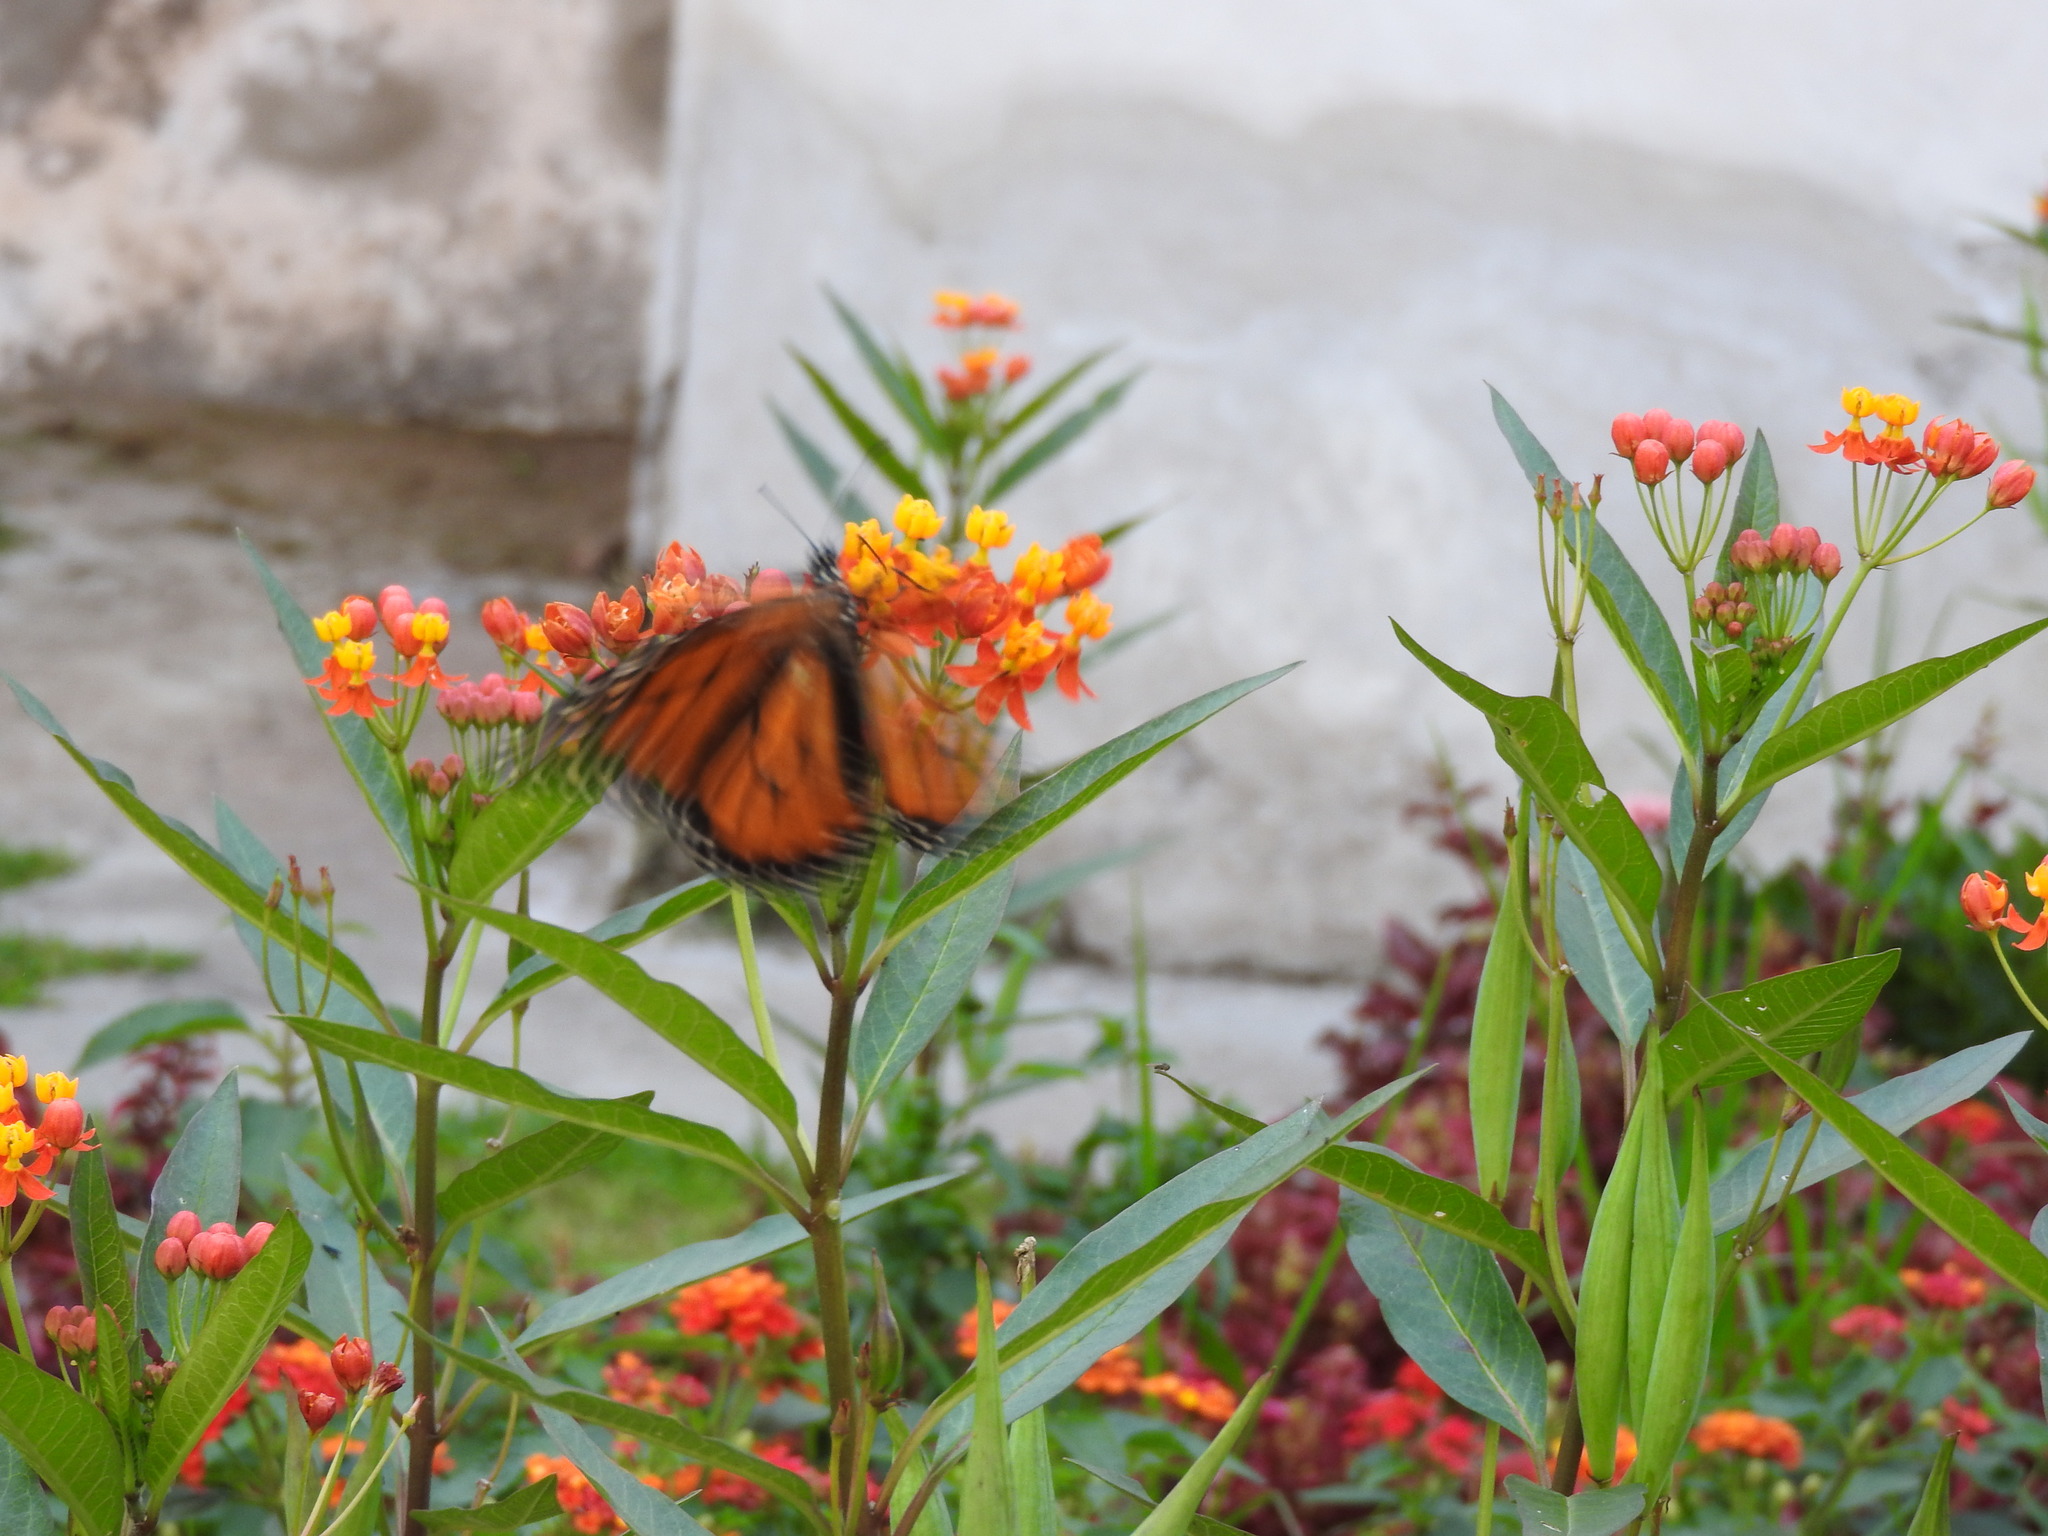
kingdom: Animalia
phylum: Arthropoda
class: Insecta
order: Lepidoptera
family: Nymphalidae
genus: Danaus
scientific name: Danaus plexippus
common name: Monarch
